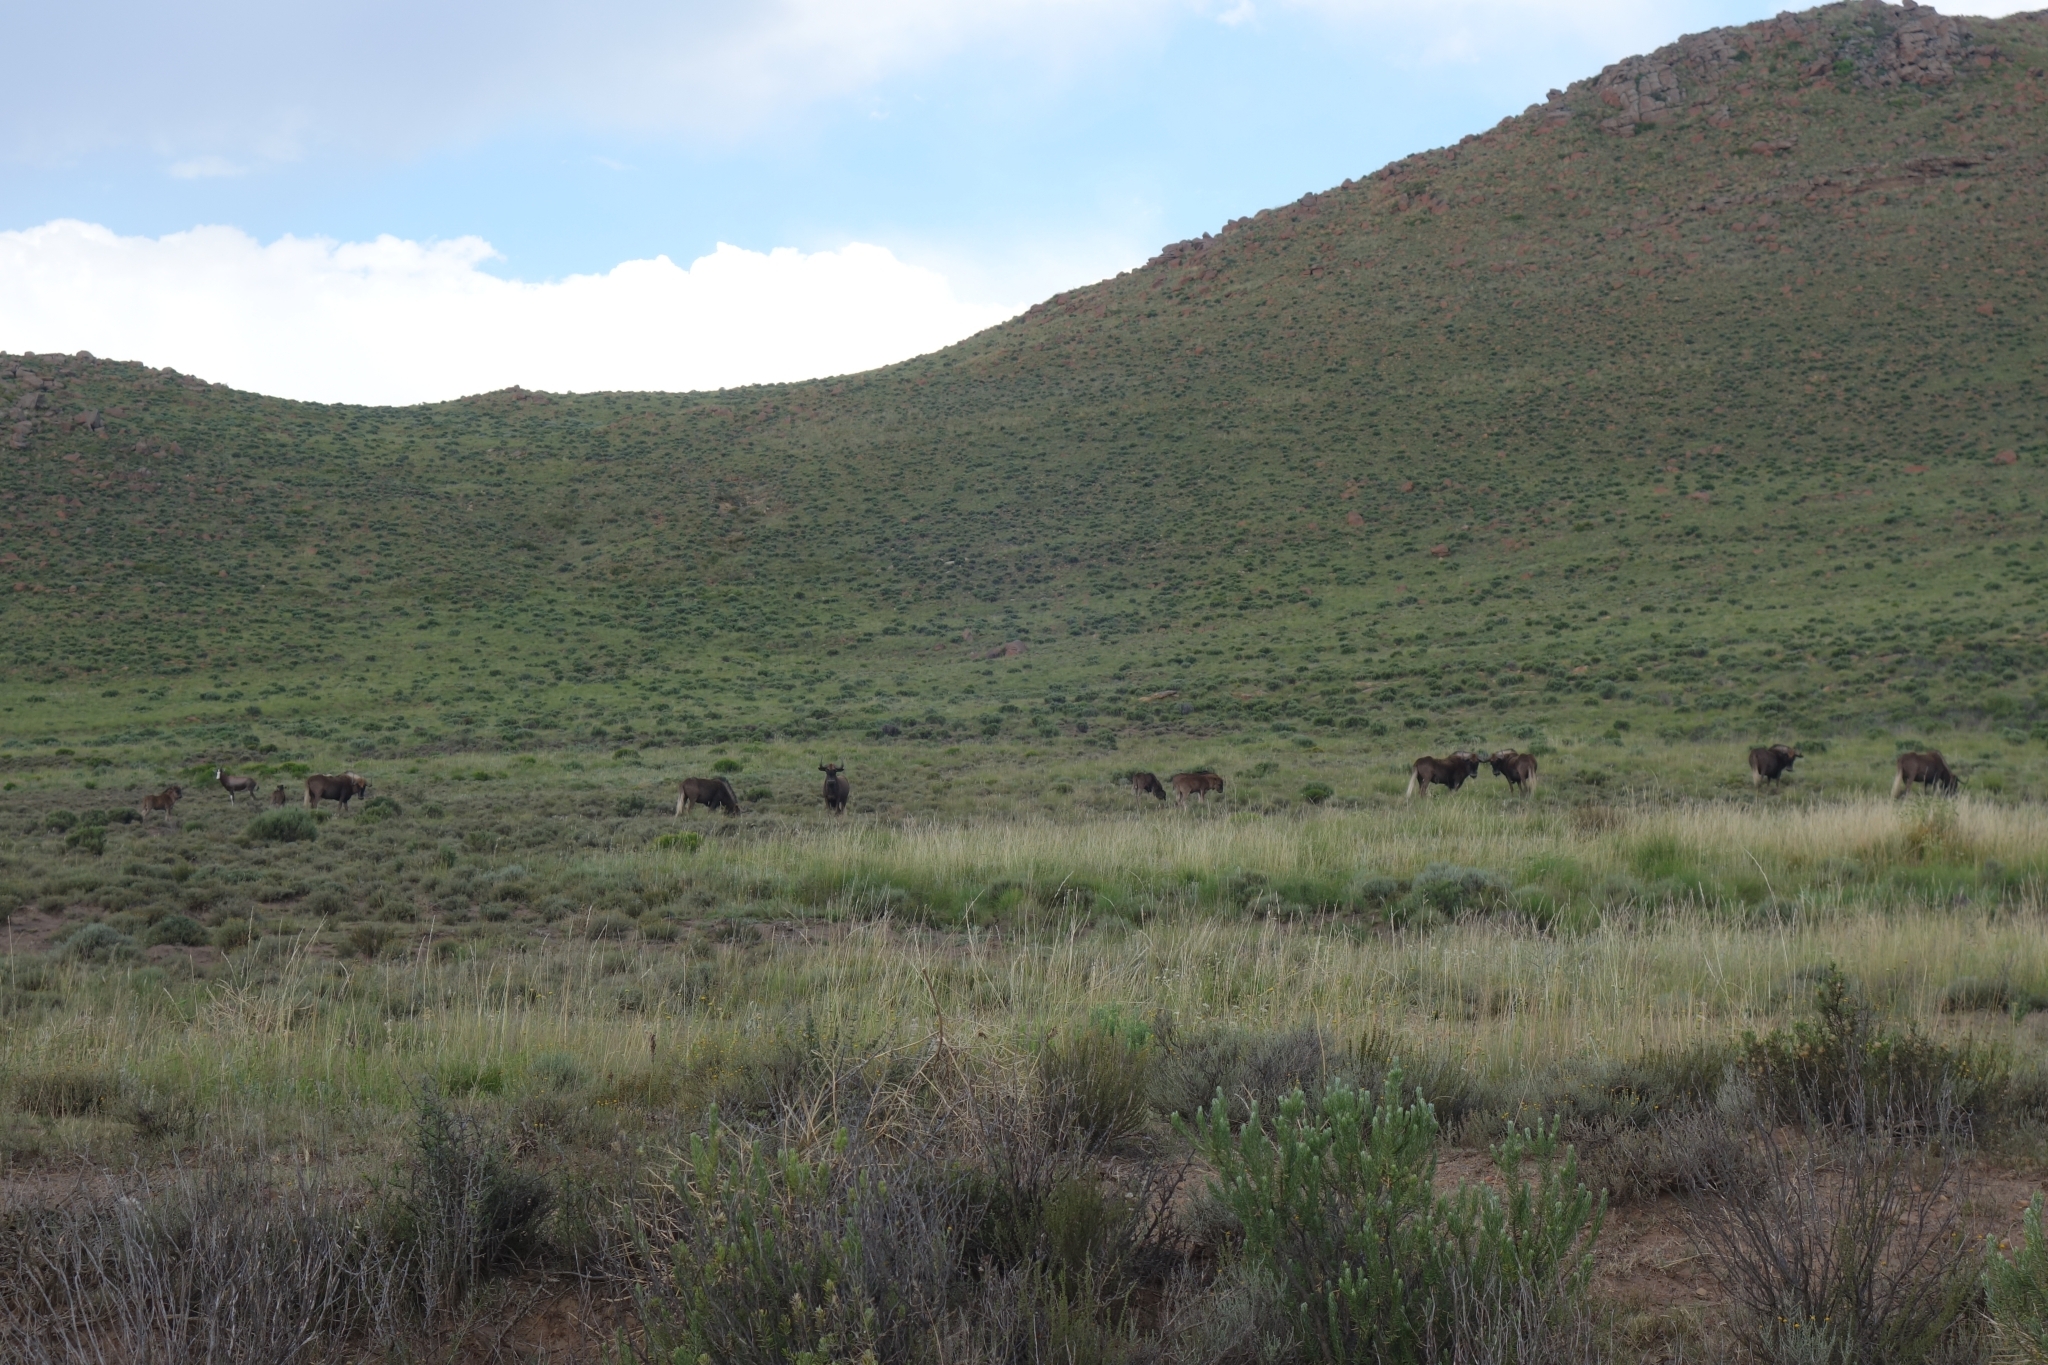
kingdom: Animalia
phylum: Chordata
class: Mammalia
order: Artiodactyla
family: Bovidae
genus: Connochaetes
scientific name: Connochaetes gnou
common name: Black wildebeest
